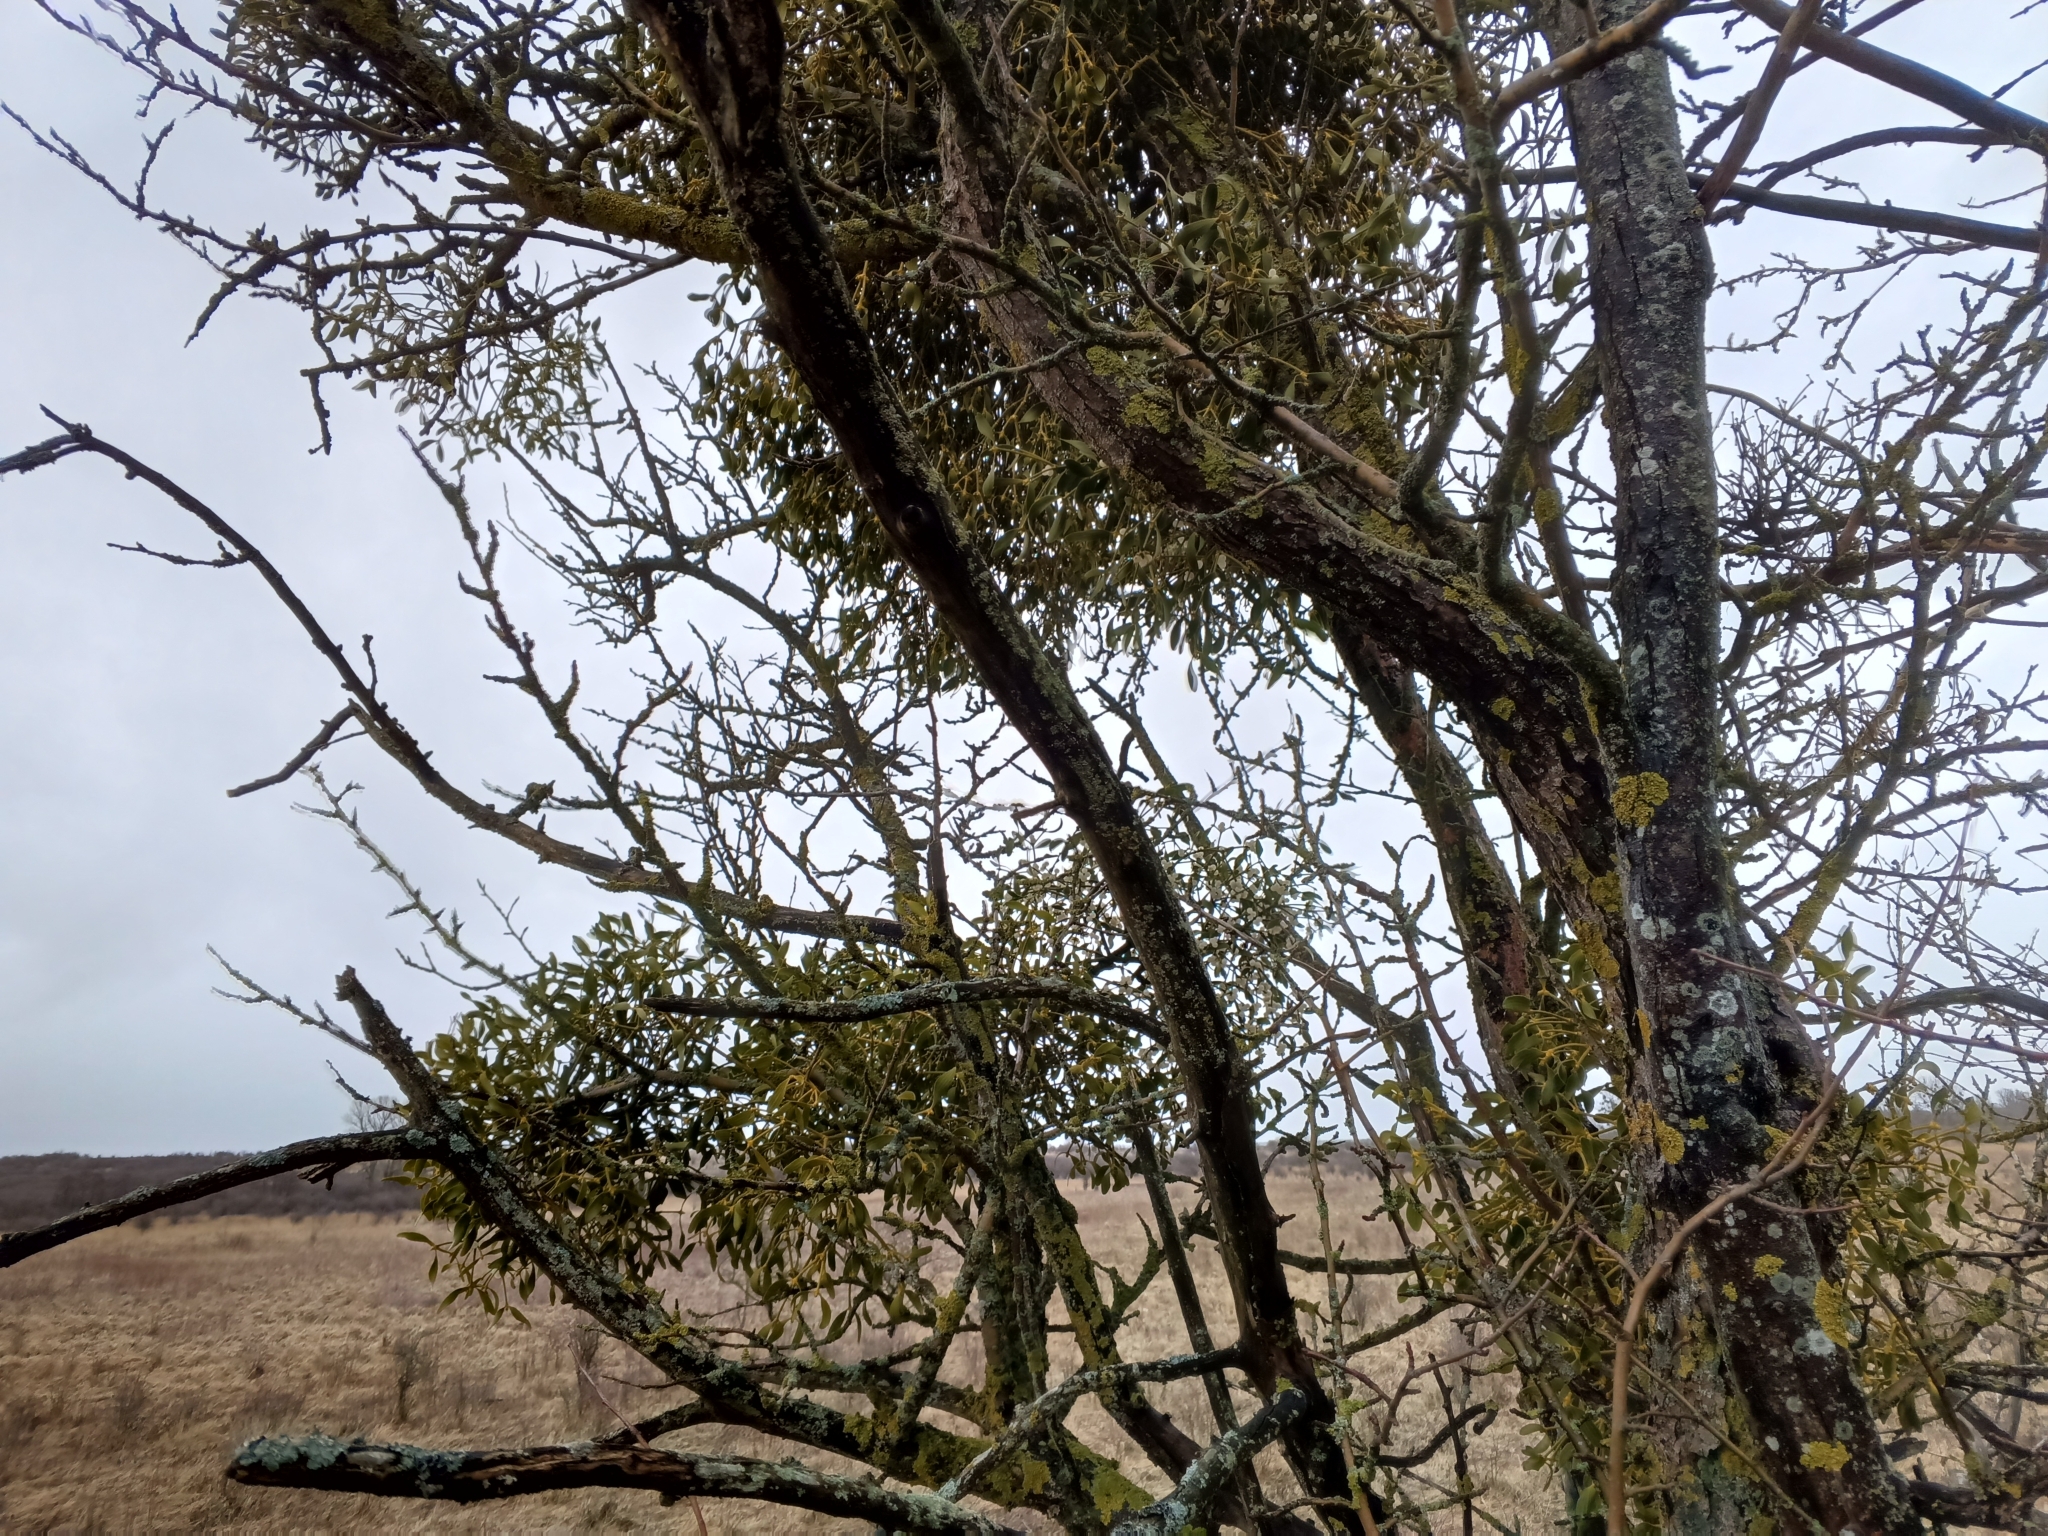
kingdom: Plantae
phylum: Tracheophyta
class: Magnoliopsida
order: Santalales
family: Viscaceae
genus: Viscum
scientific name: Viscum album
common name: Mistletoe
